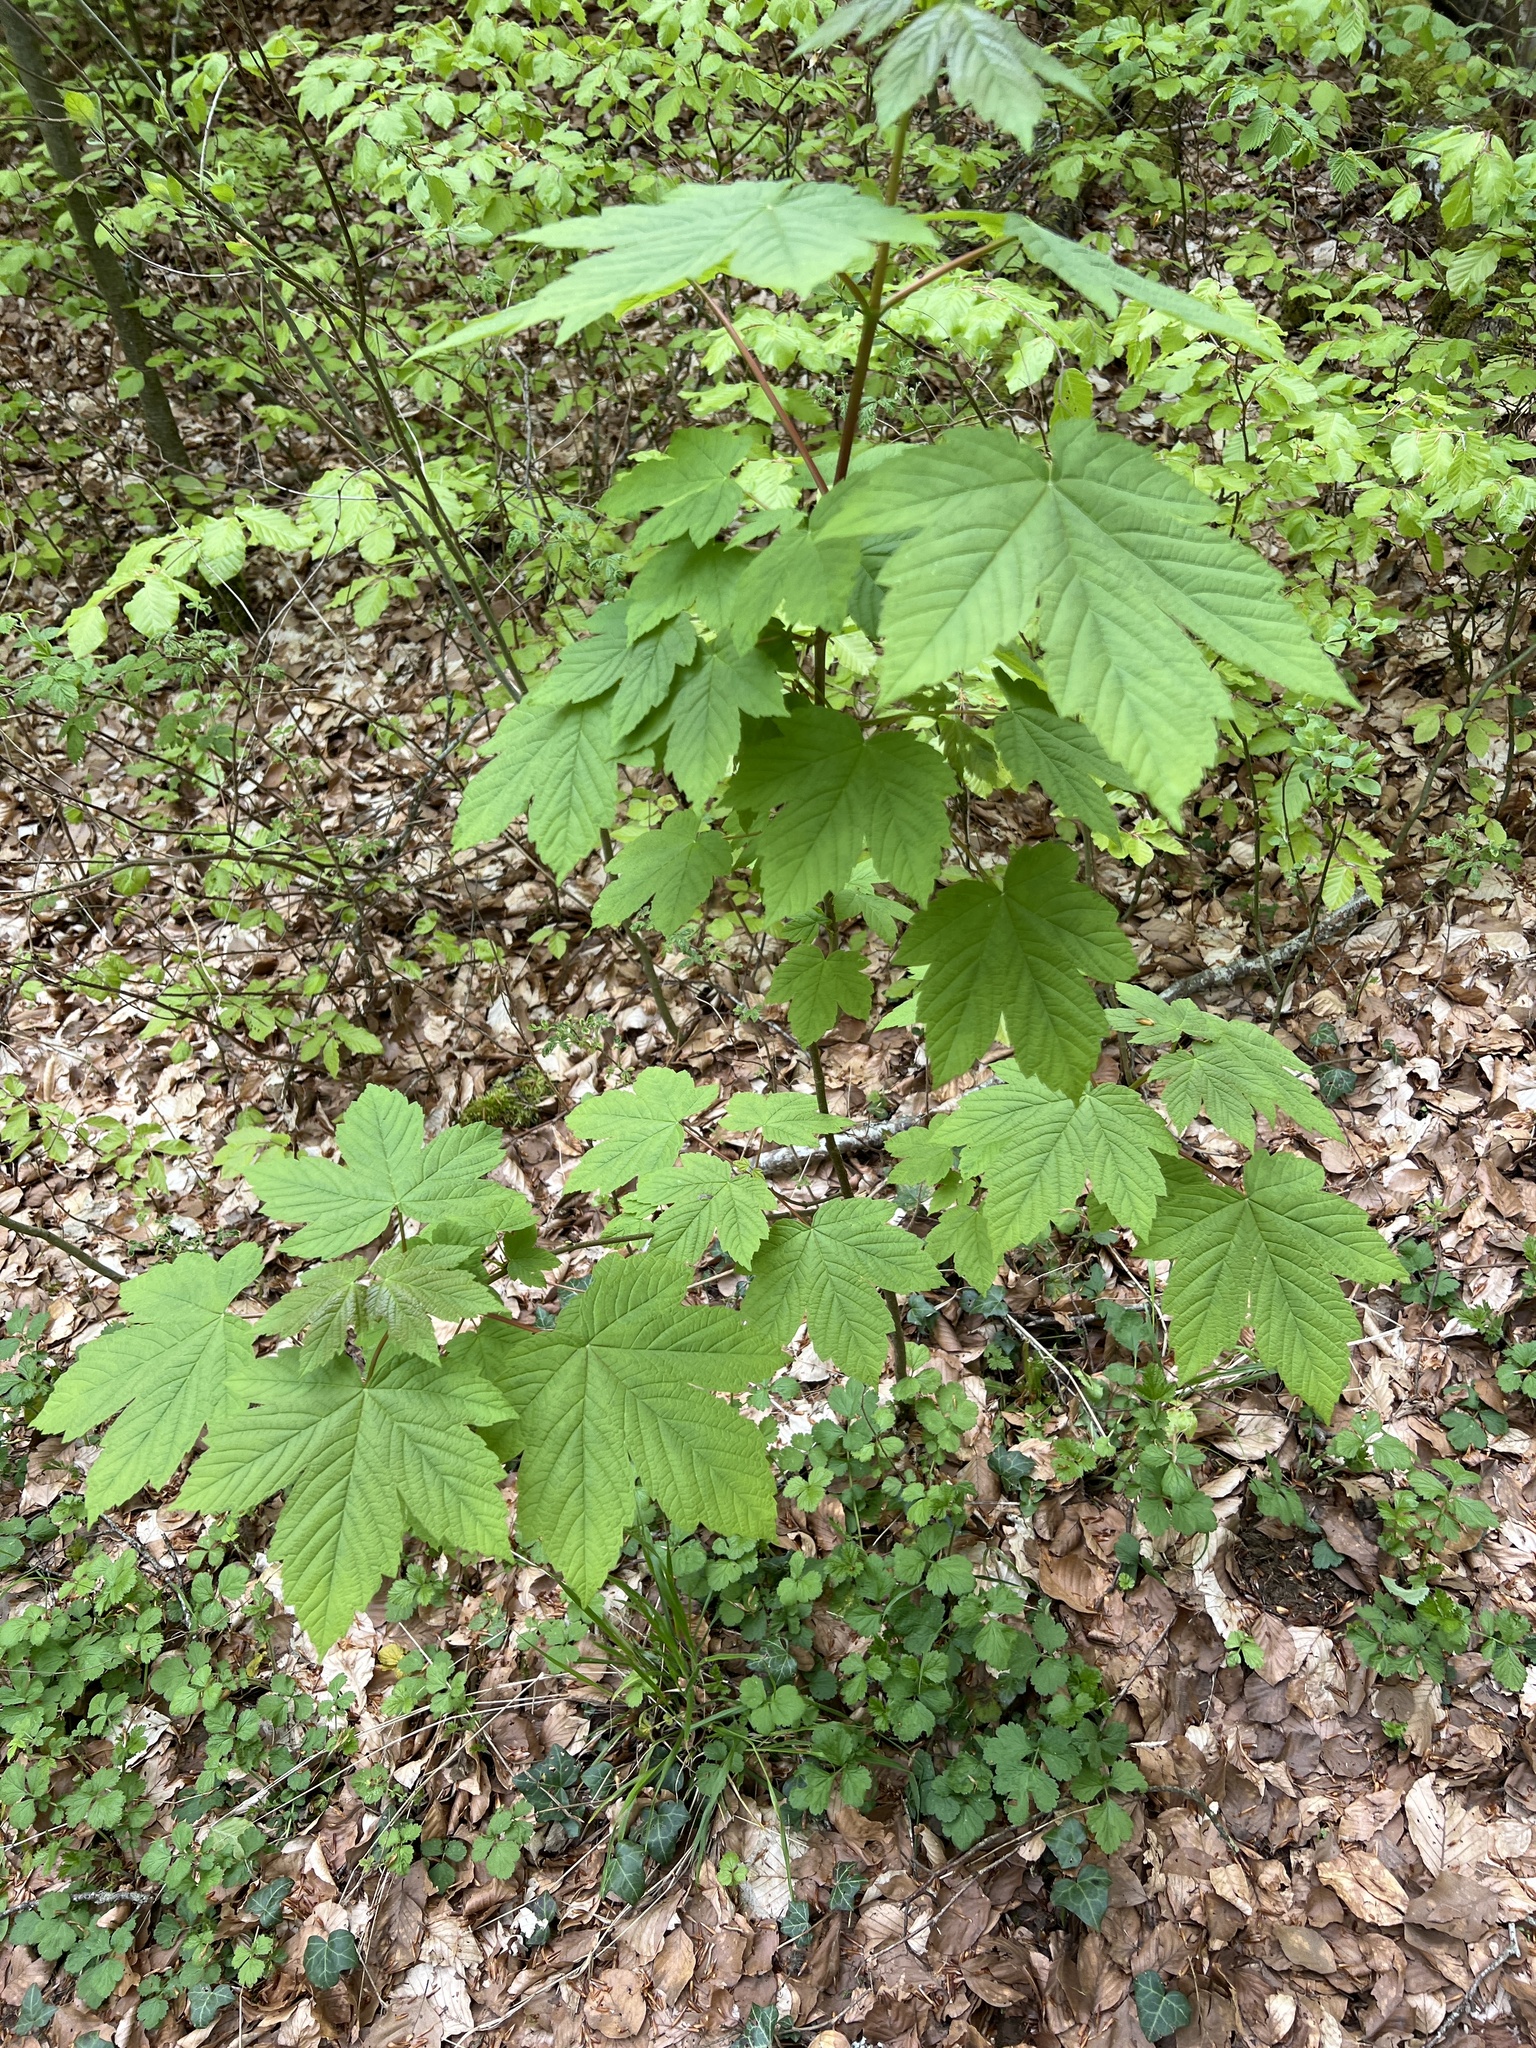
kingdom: Plantae
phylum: Tracheophyta
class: Magnoliopsida
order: Sapindales
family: Sapindaceae
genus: Acer
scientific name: Acer pseudoplatanus
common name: Sycamore
